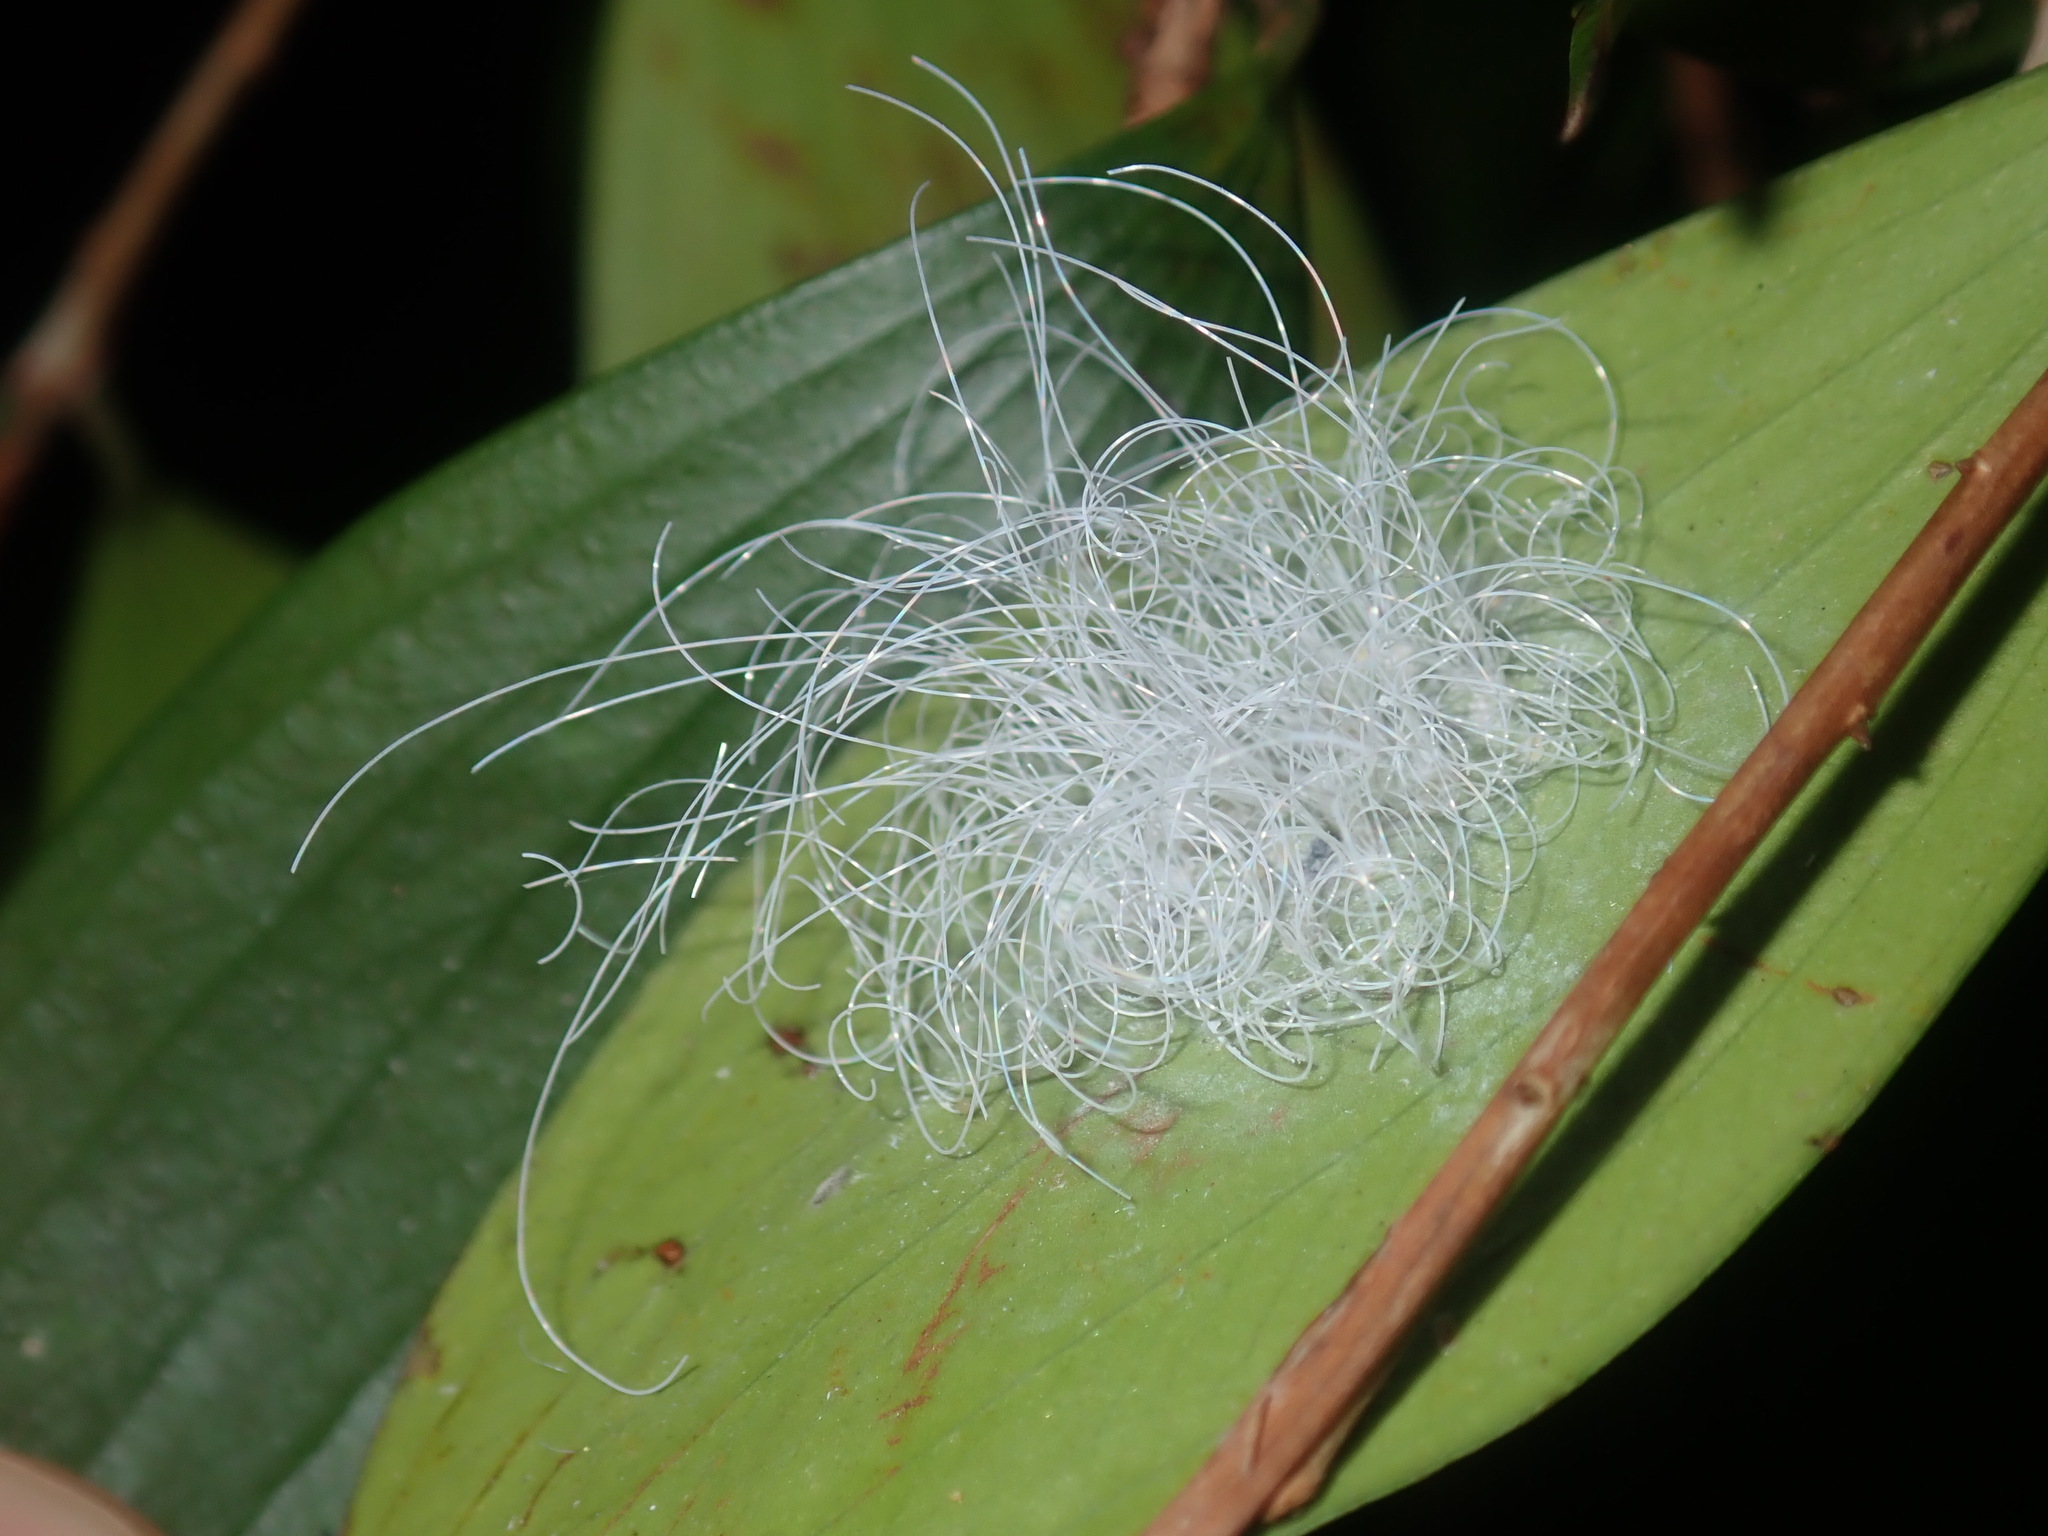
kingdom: Animalia
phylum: Arthropoda
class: Insecta
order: Hemiptera
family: Aleyrodidae
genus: Aleuroctarthrus
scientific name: Aleuroctarthrus
